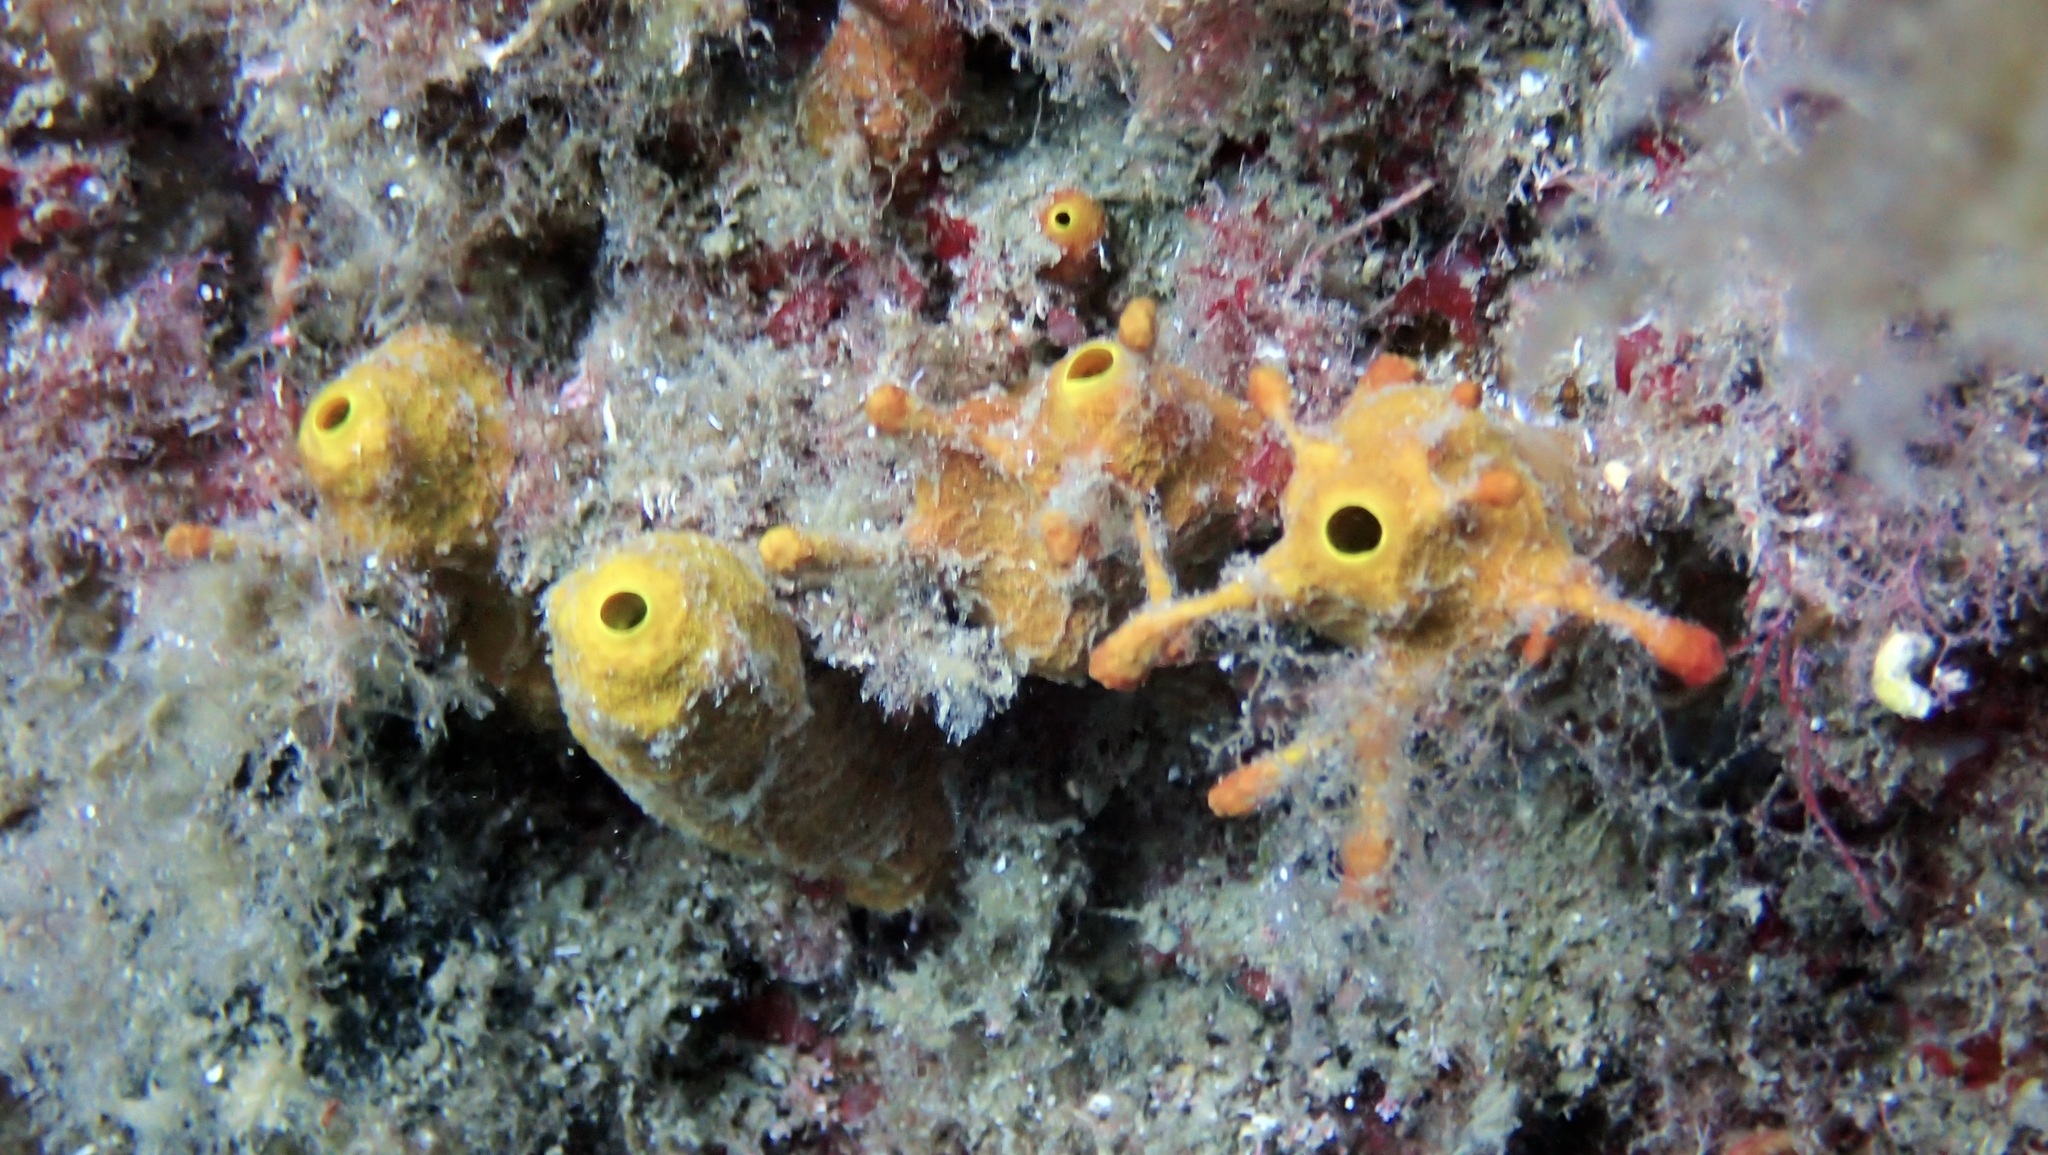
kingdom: Animalia
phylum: Porifera
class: Demospongiae
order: Verongiida
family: Aplysinidae
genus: Aplysina
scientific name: Aplysina aerophoba
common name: Aureate sponge
